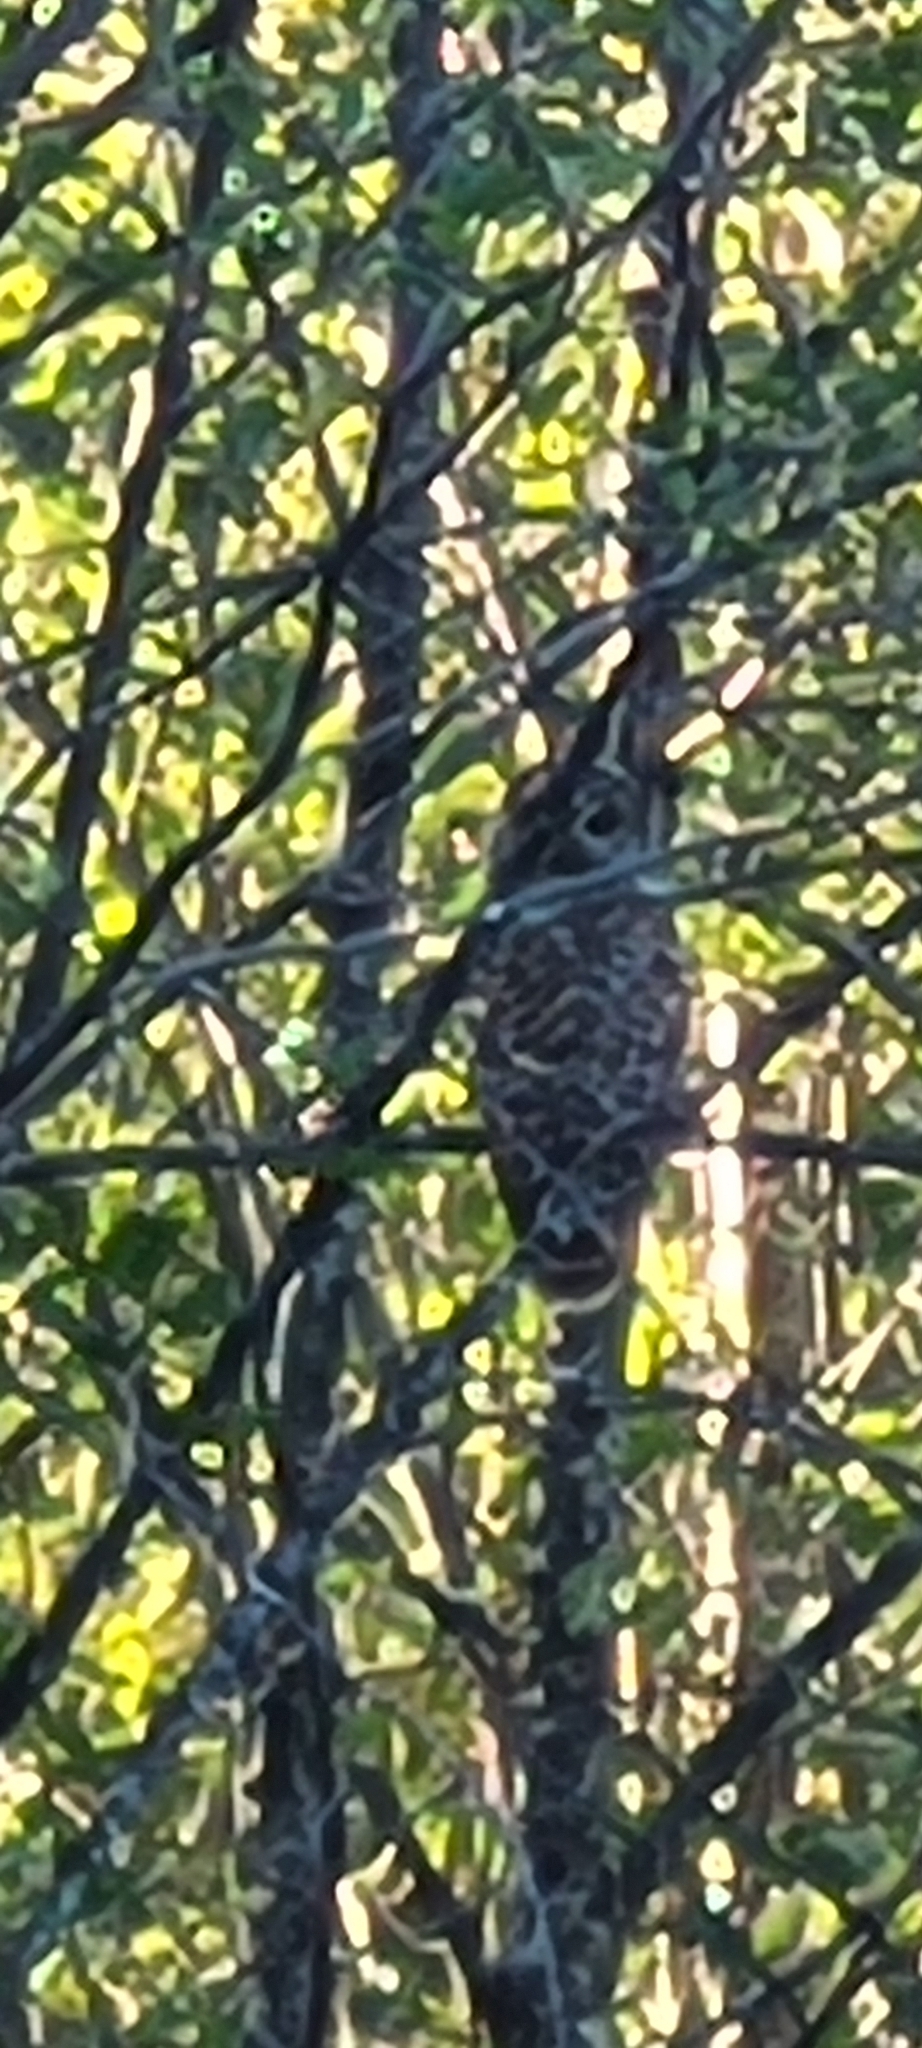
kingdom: Animalia
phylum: Chordata
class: Aves
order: Strigiformes
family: Strigidae
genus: Strix
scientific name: Strix varia
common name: Barred owl
